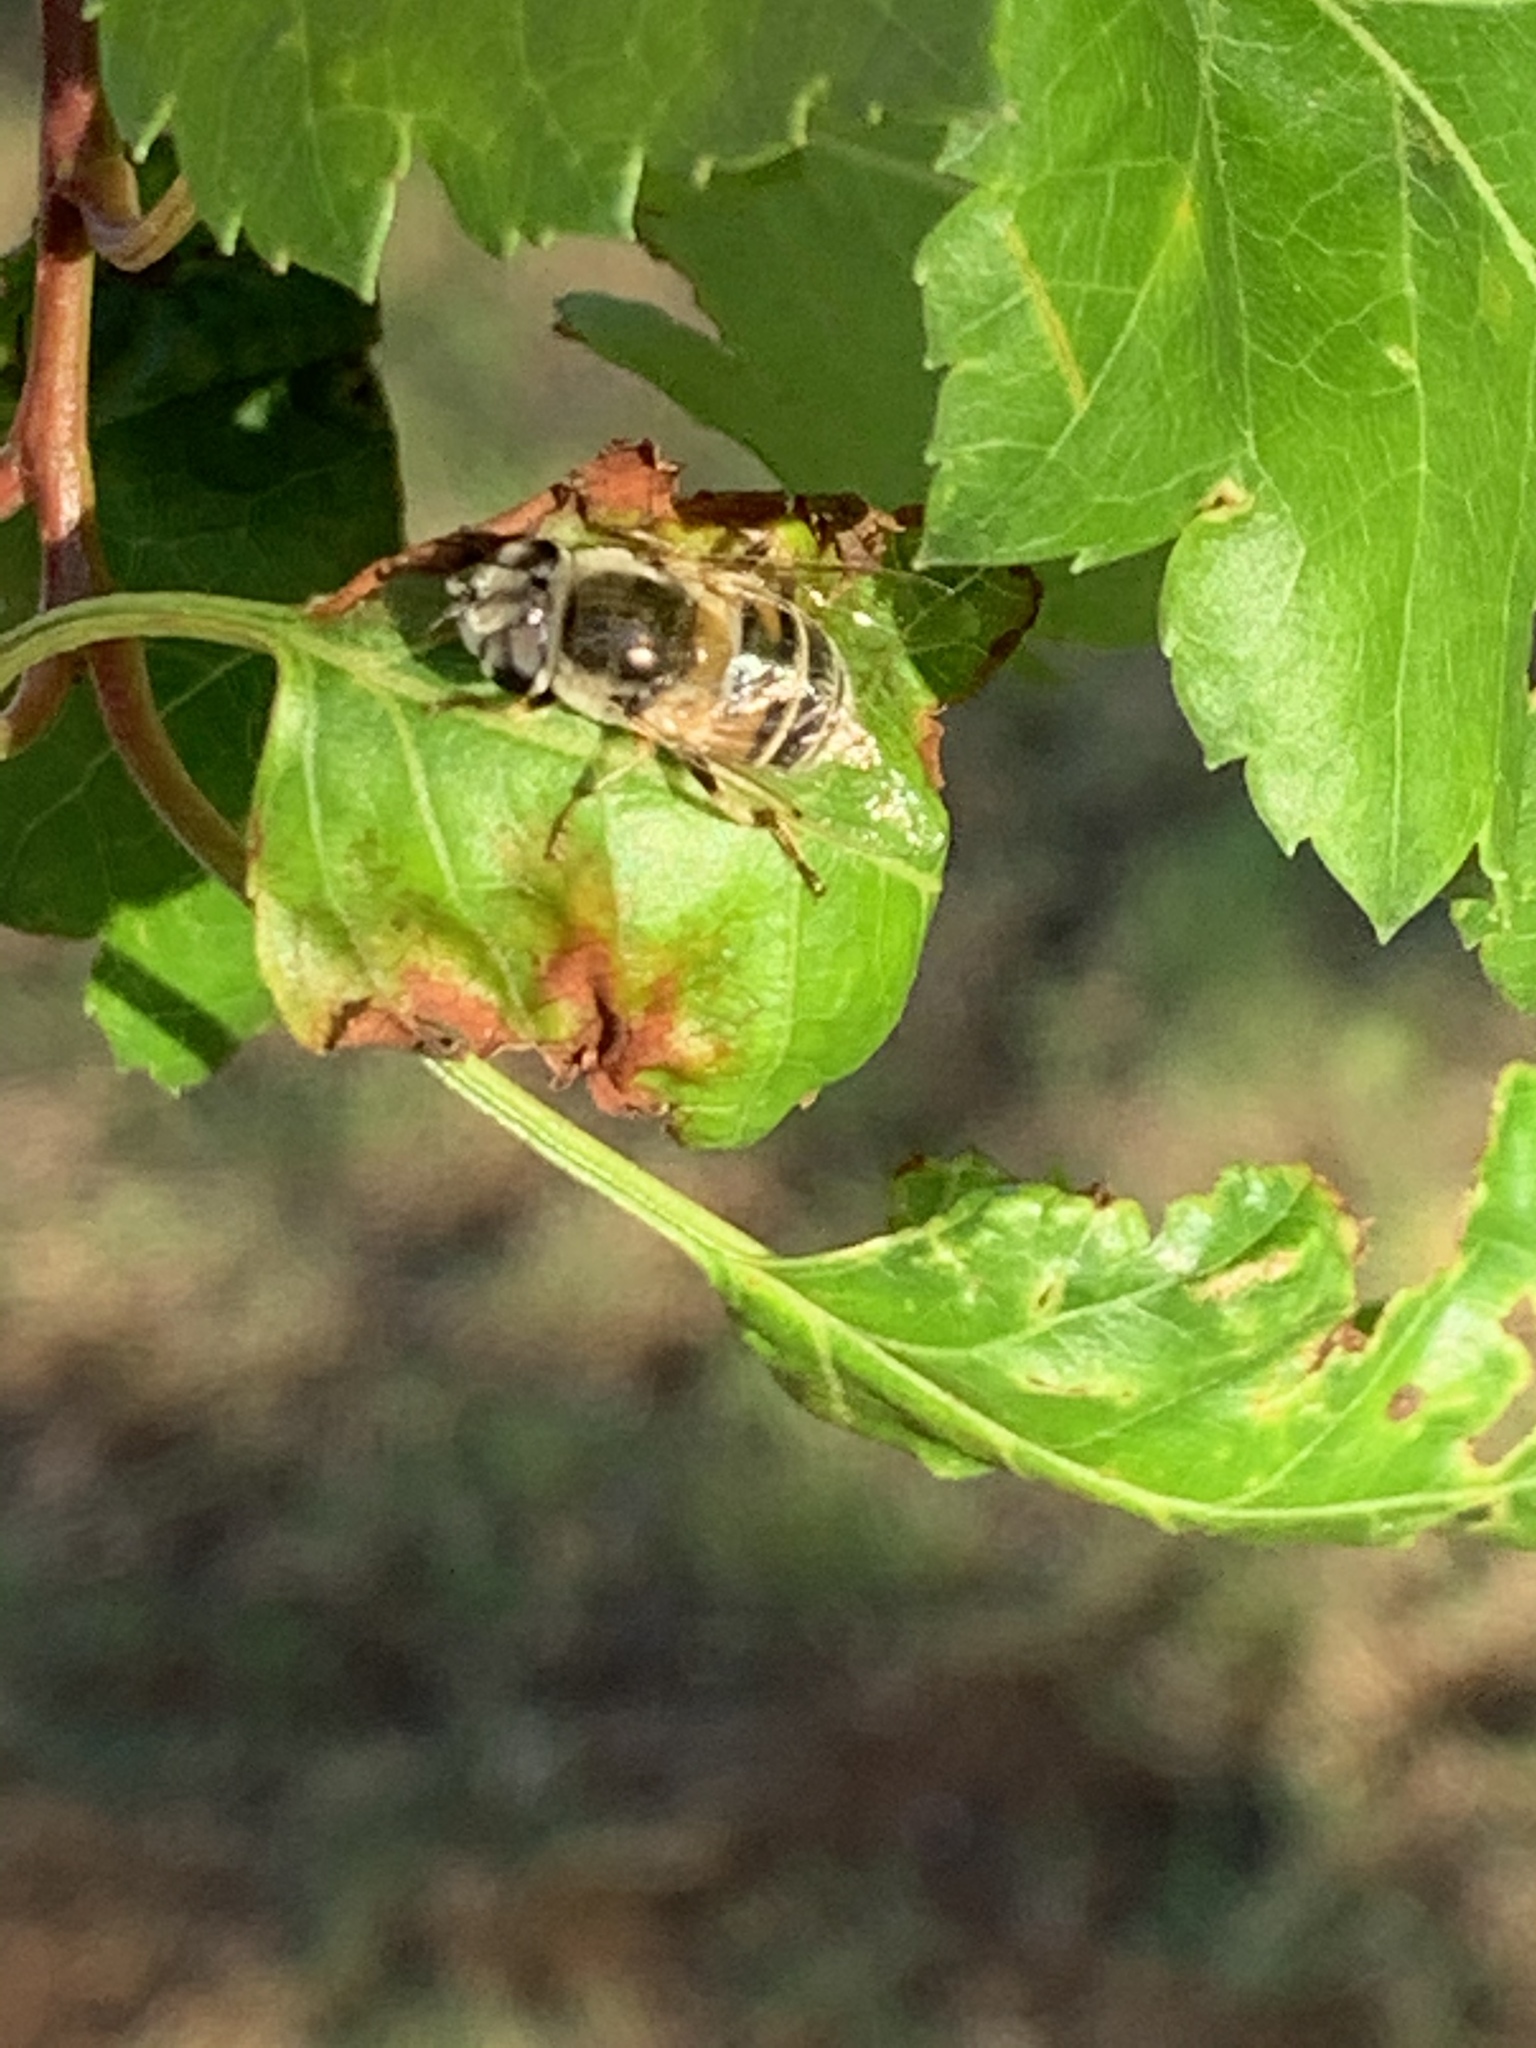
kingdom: Animalia
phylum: Arthropoda
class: Insecta
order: Diptera
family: Syrphidae
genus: Eristalis
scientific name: Eristalis stipator
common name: Yellow-shouldered drone fly
